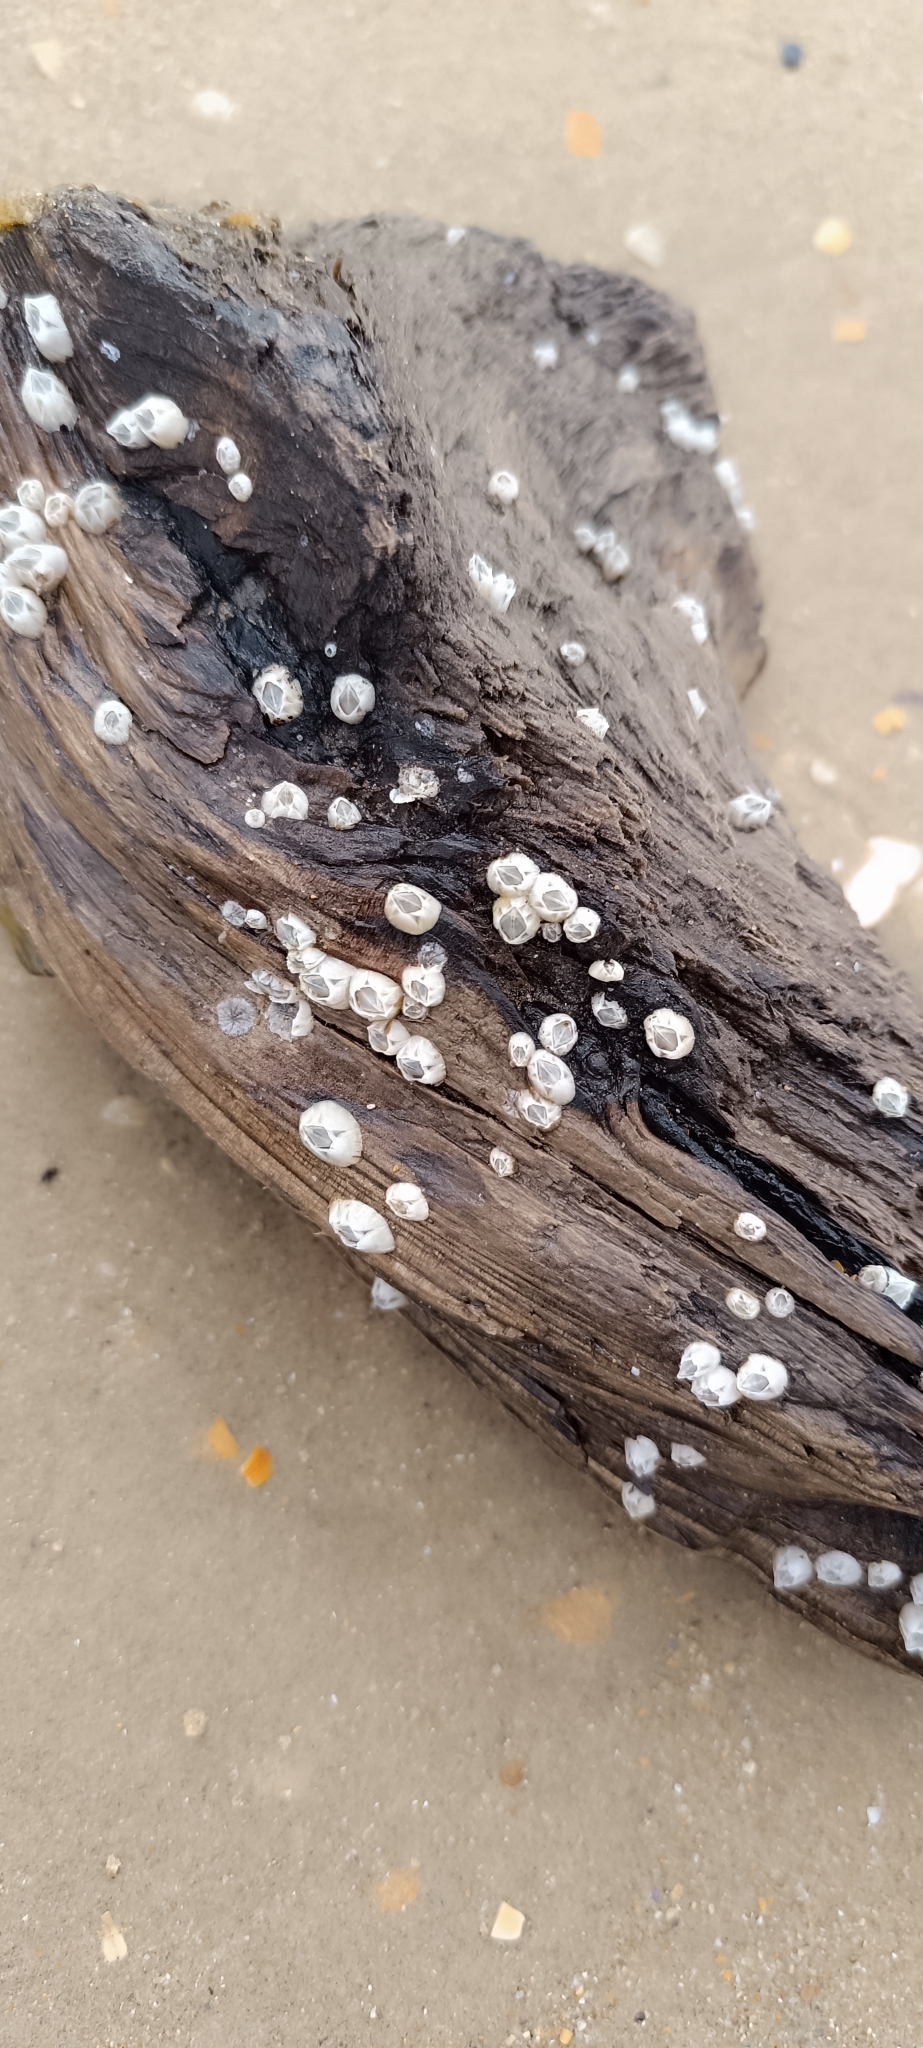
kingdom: Animalia
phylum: Arthropoda
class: Maxillopoda
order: Sessilia
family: Balanidae
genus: Amphibalanus
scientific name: Amphibalanus improvisus
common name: Bay barnacle
